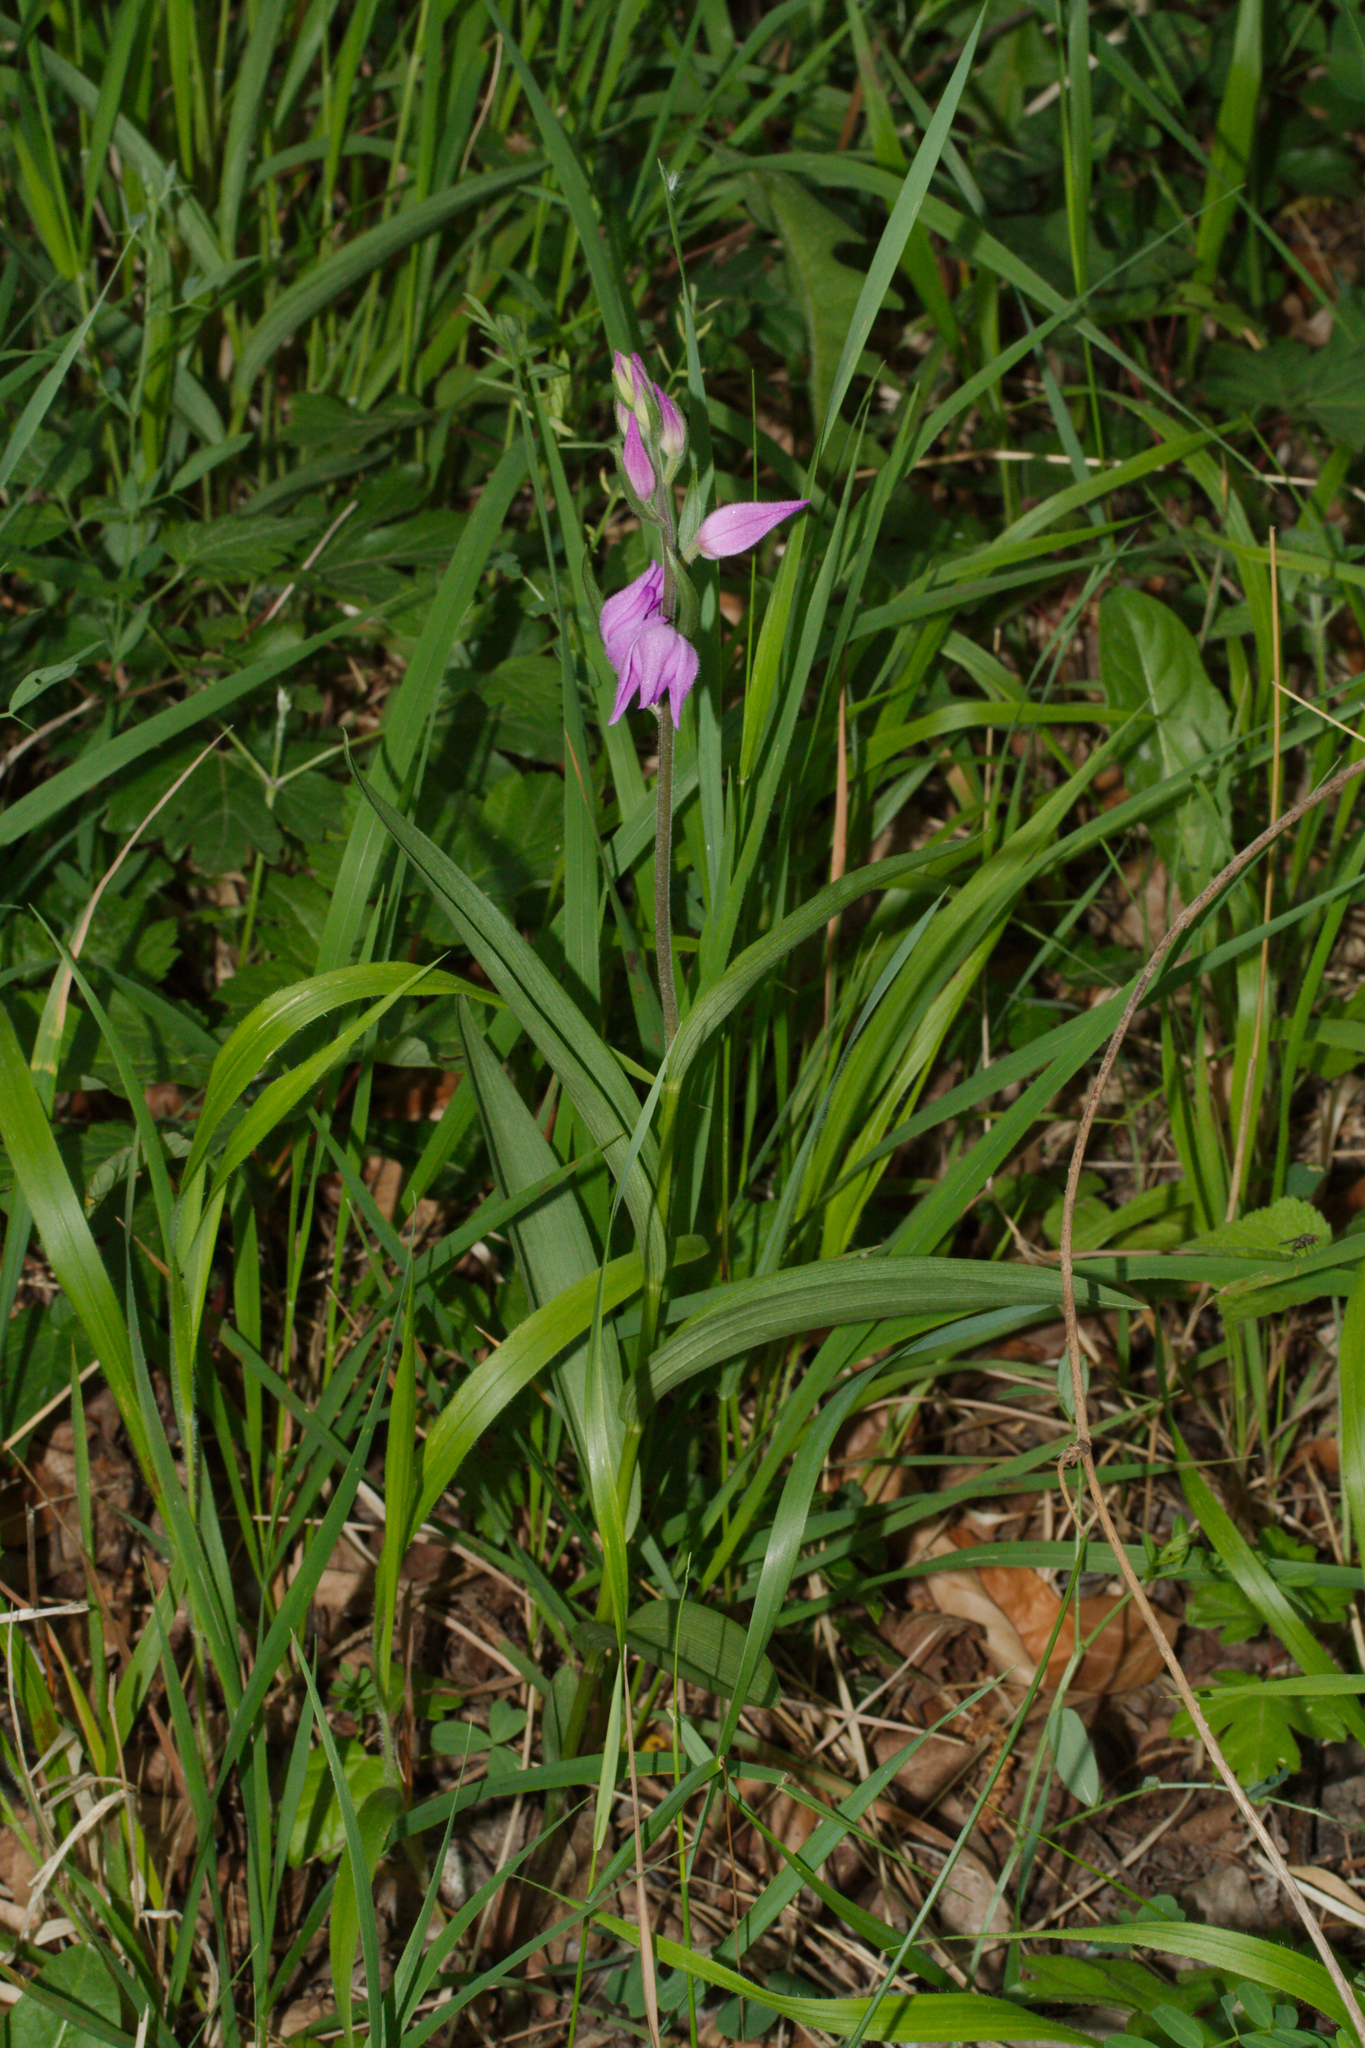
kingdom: Plantae
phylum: Tracheophyta
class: Liliopsida
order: Asparagales
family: Orchidaceae
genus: Cephalanthera
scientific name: Cephalanthera rubra
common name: Red helleborine
